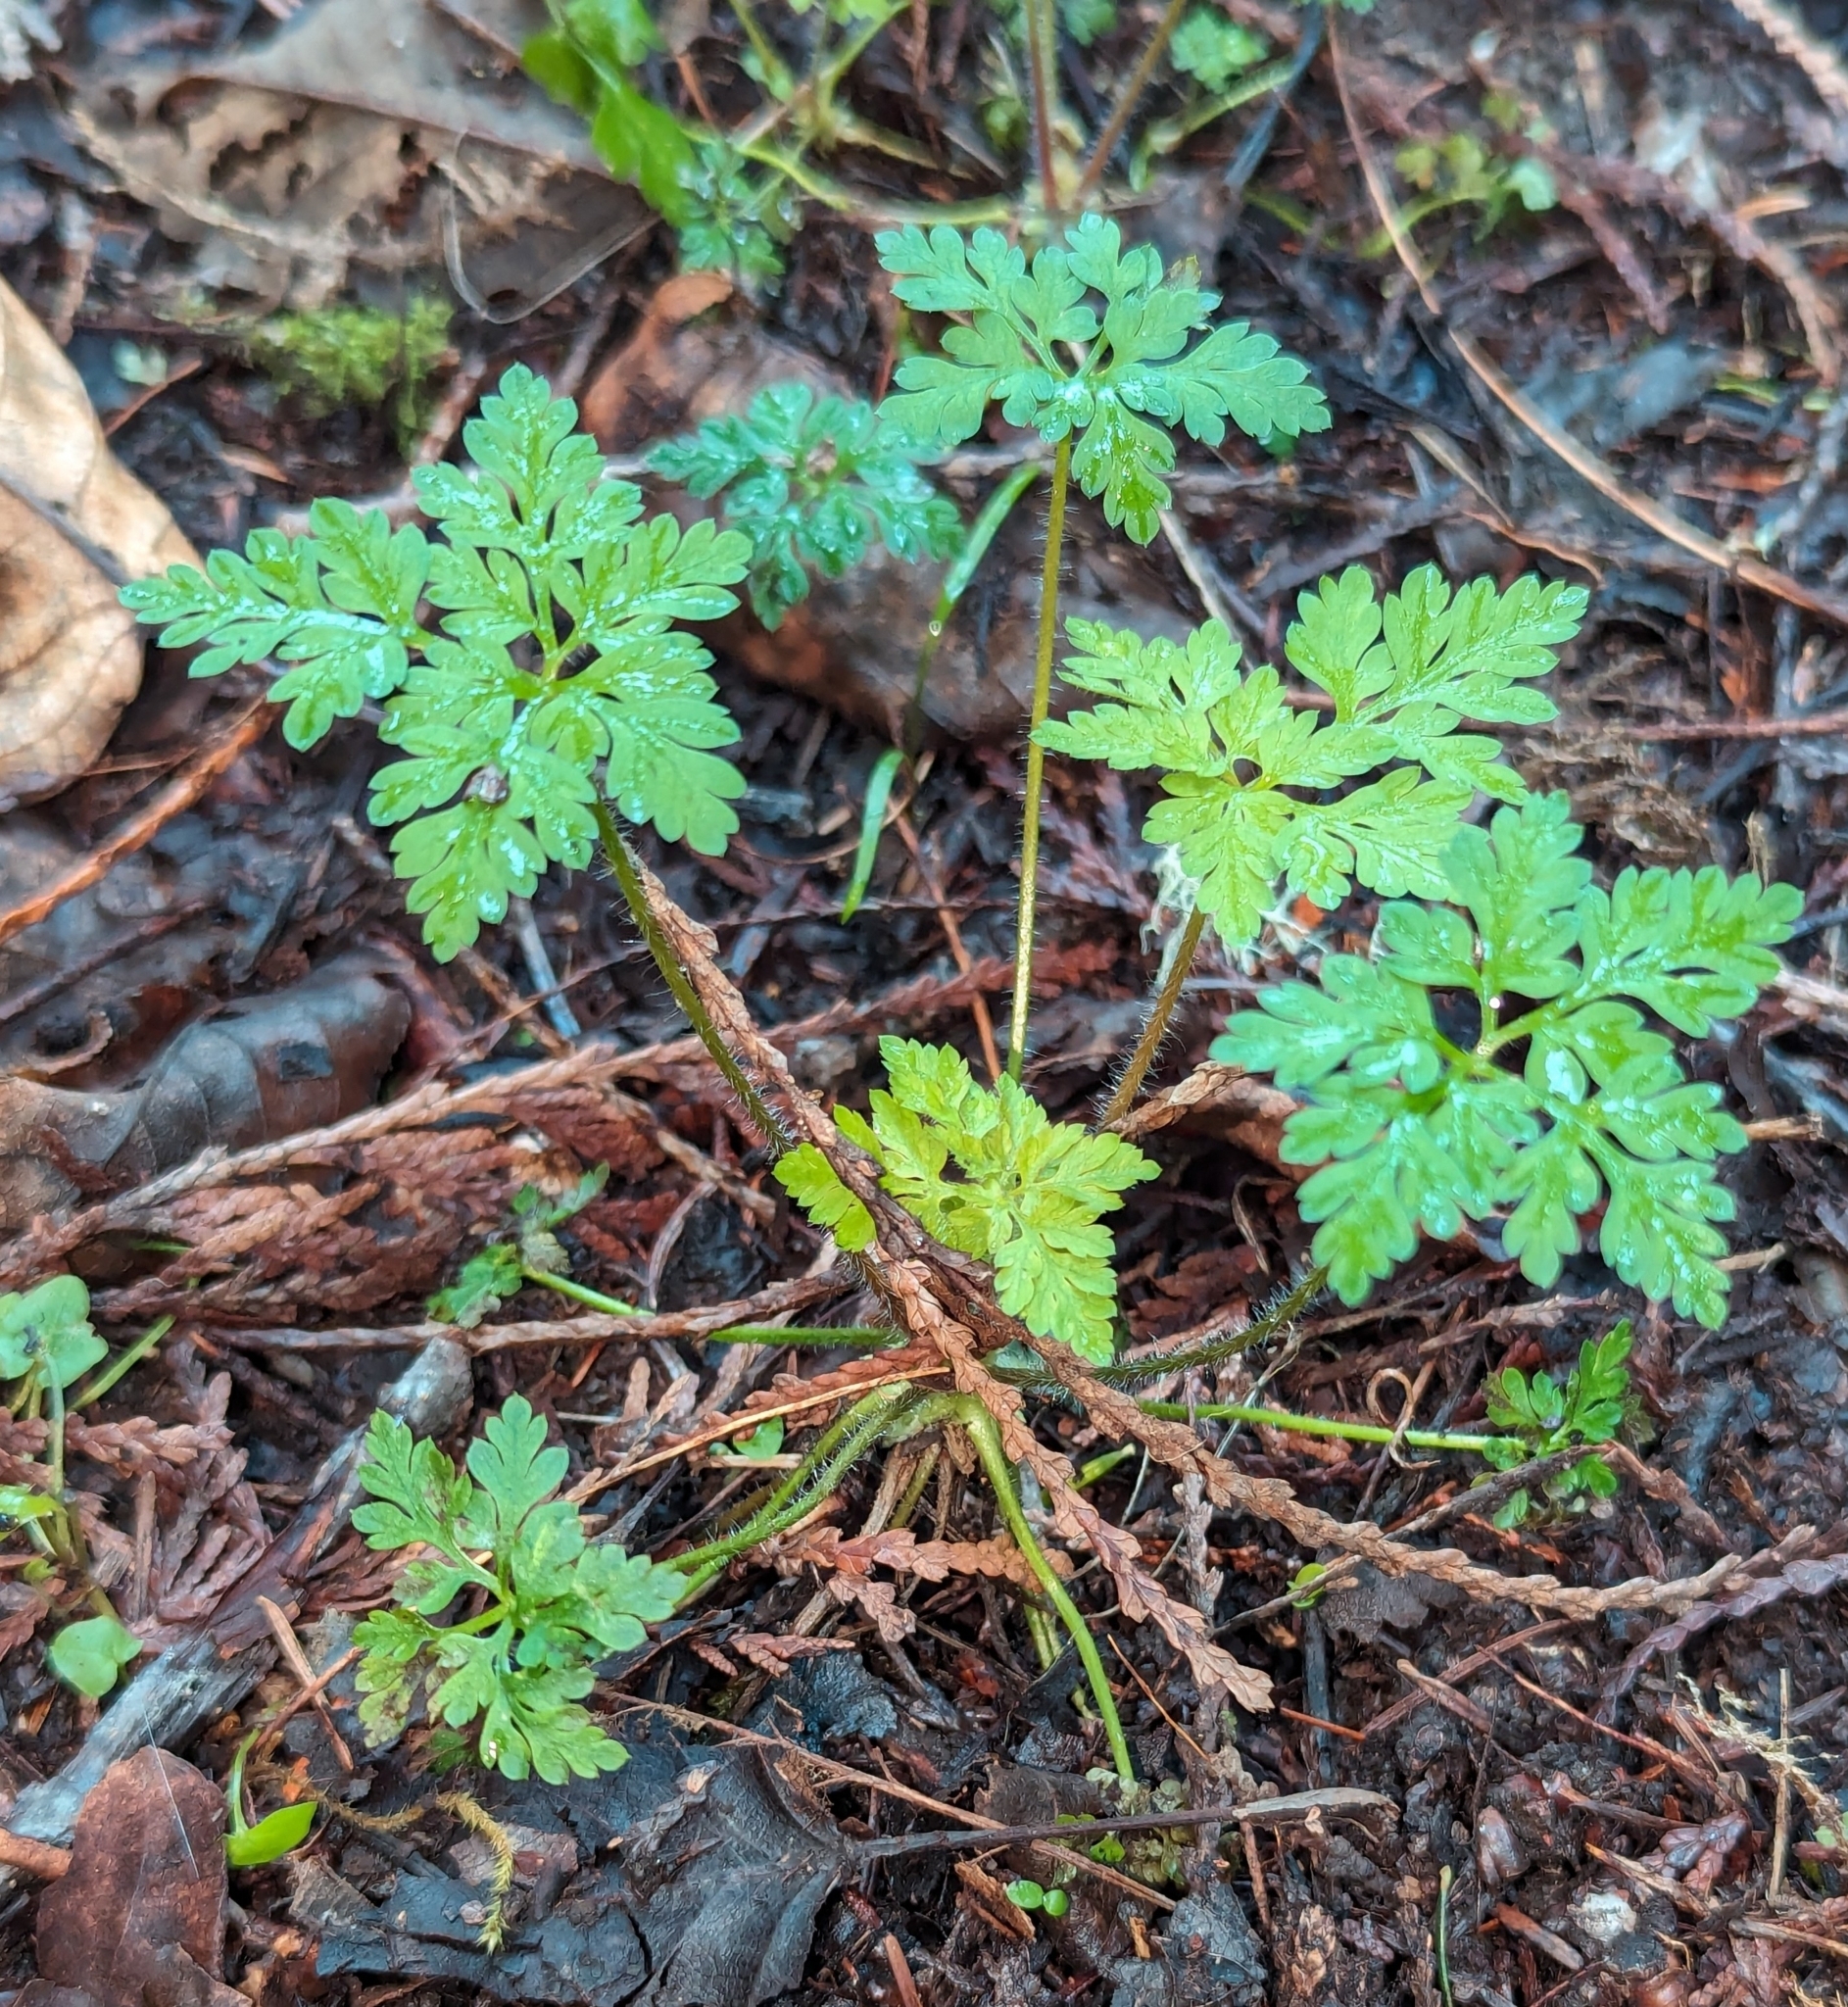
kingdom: Plantae
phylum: Tracheophyta
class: Magnoliopsida
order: Geraniales
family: Geraniaceae
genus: Geranium
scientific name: Geranium robertianum
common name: Herb-robert
